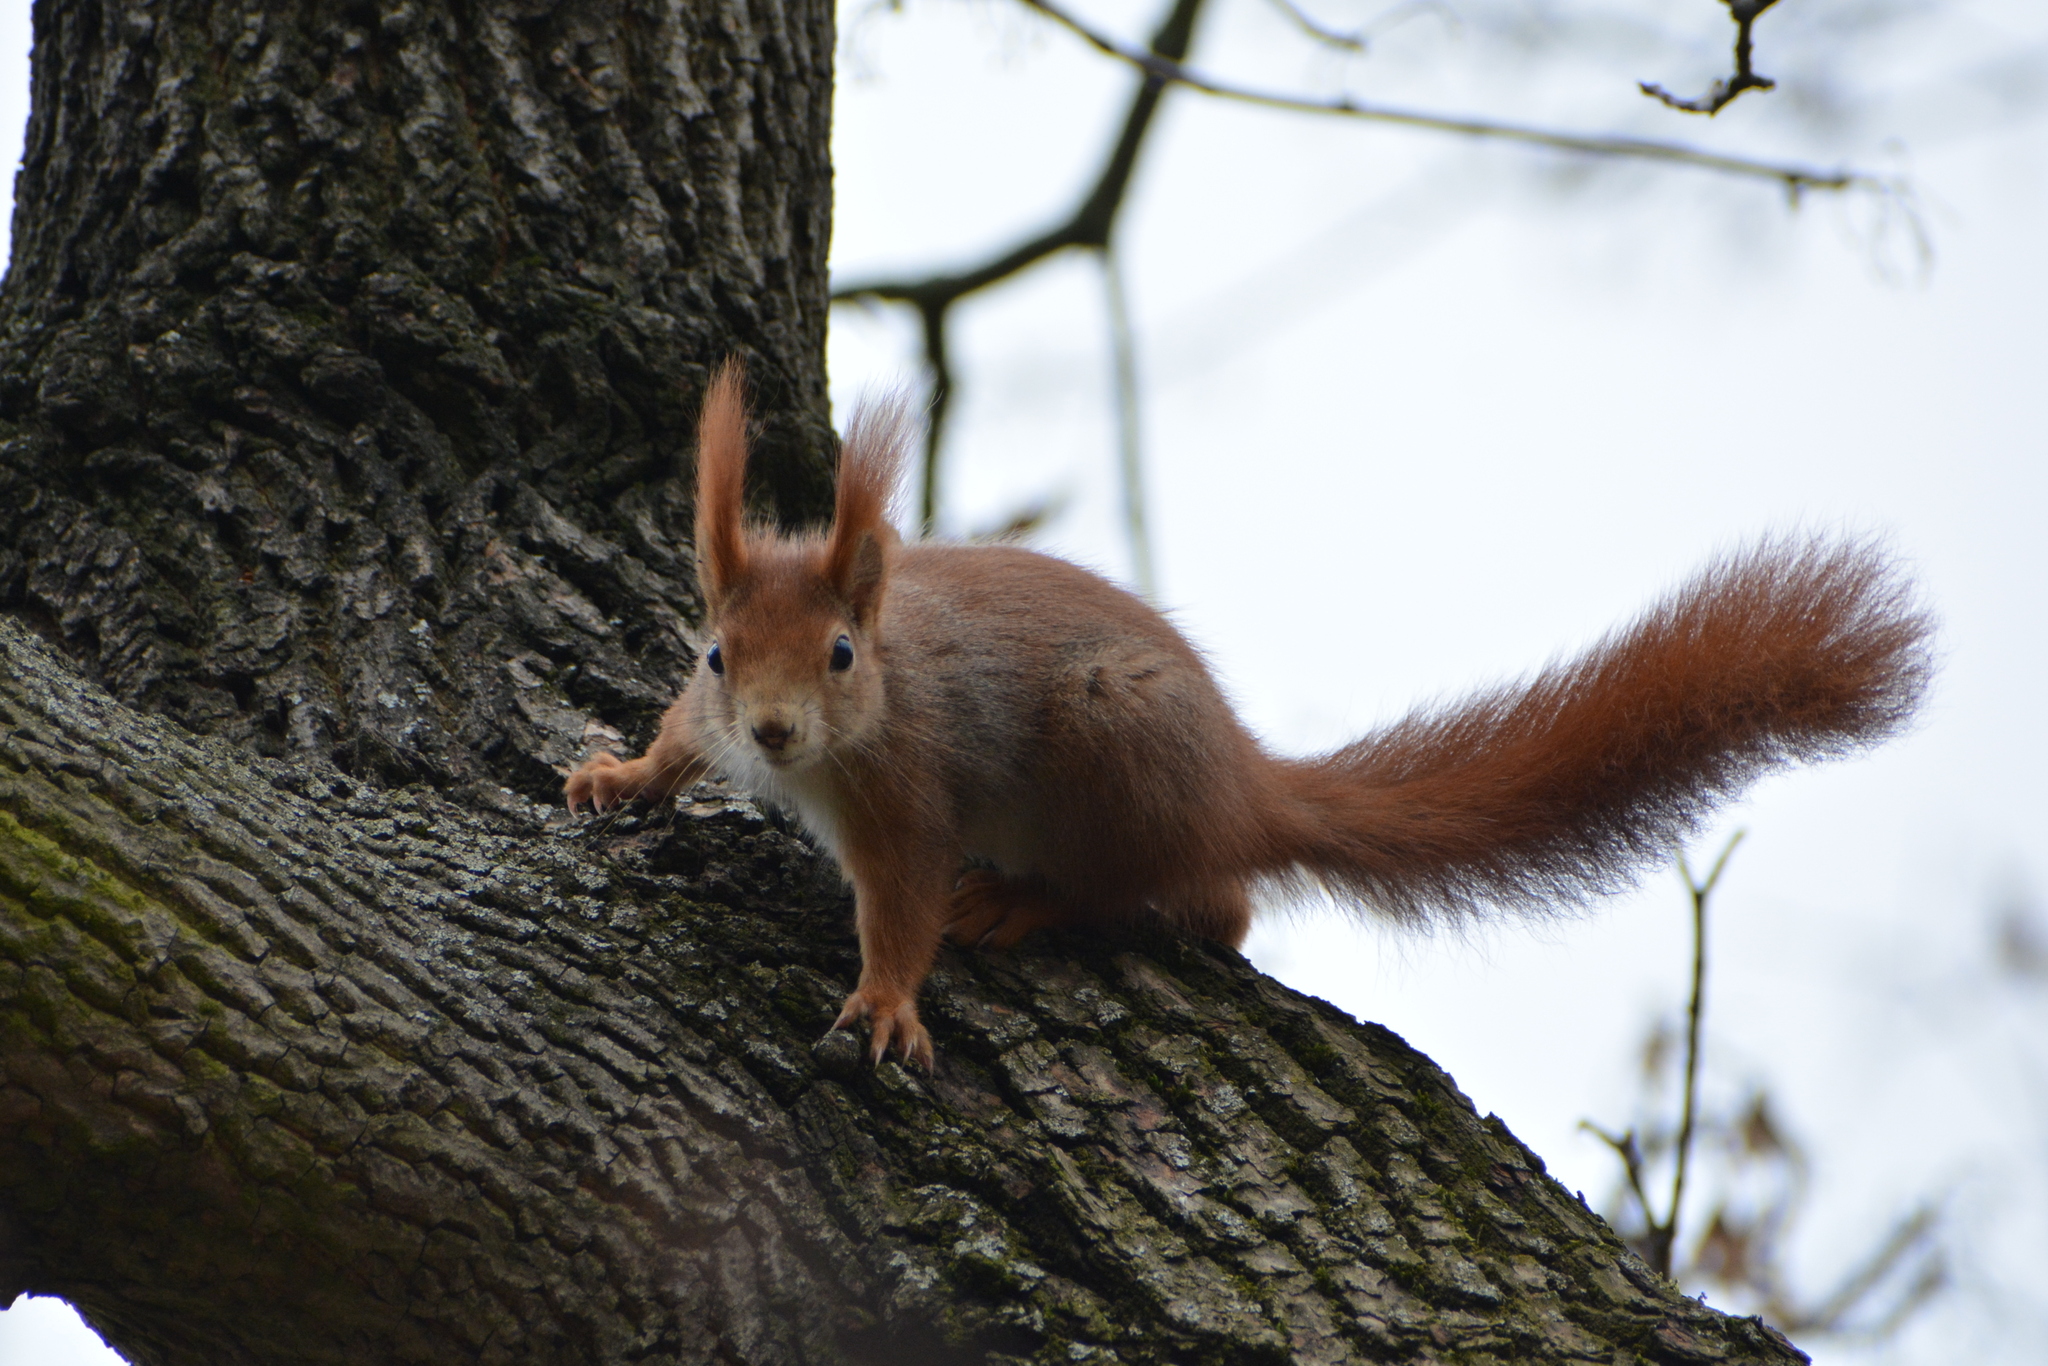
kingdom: Animalia
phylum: Chordata
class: Mammalia
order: Rodentia
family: Sciuridae
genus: Sciurus
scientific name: Sciurus vulgaris
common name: Eurasian red squirrel
